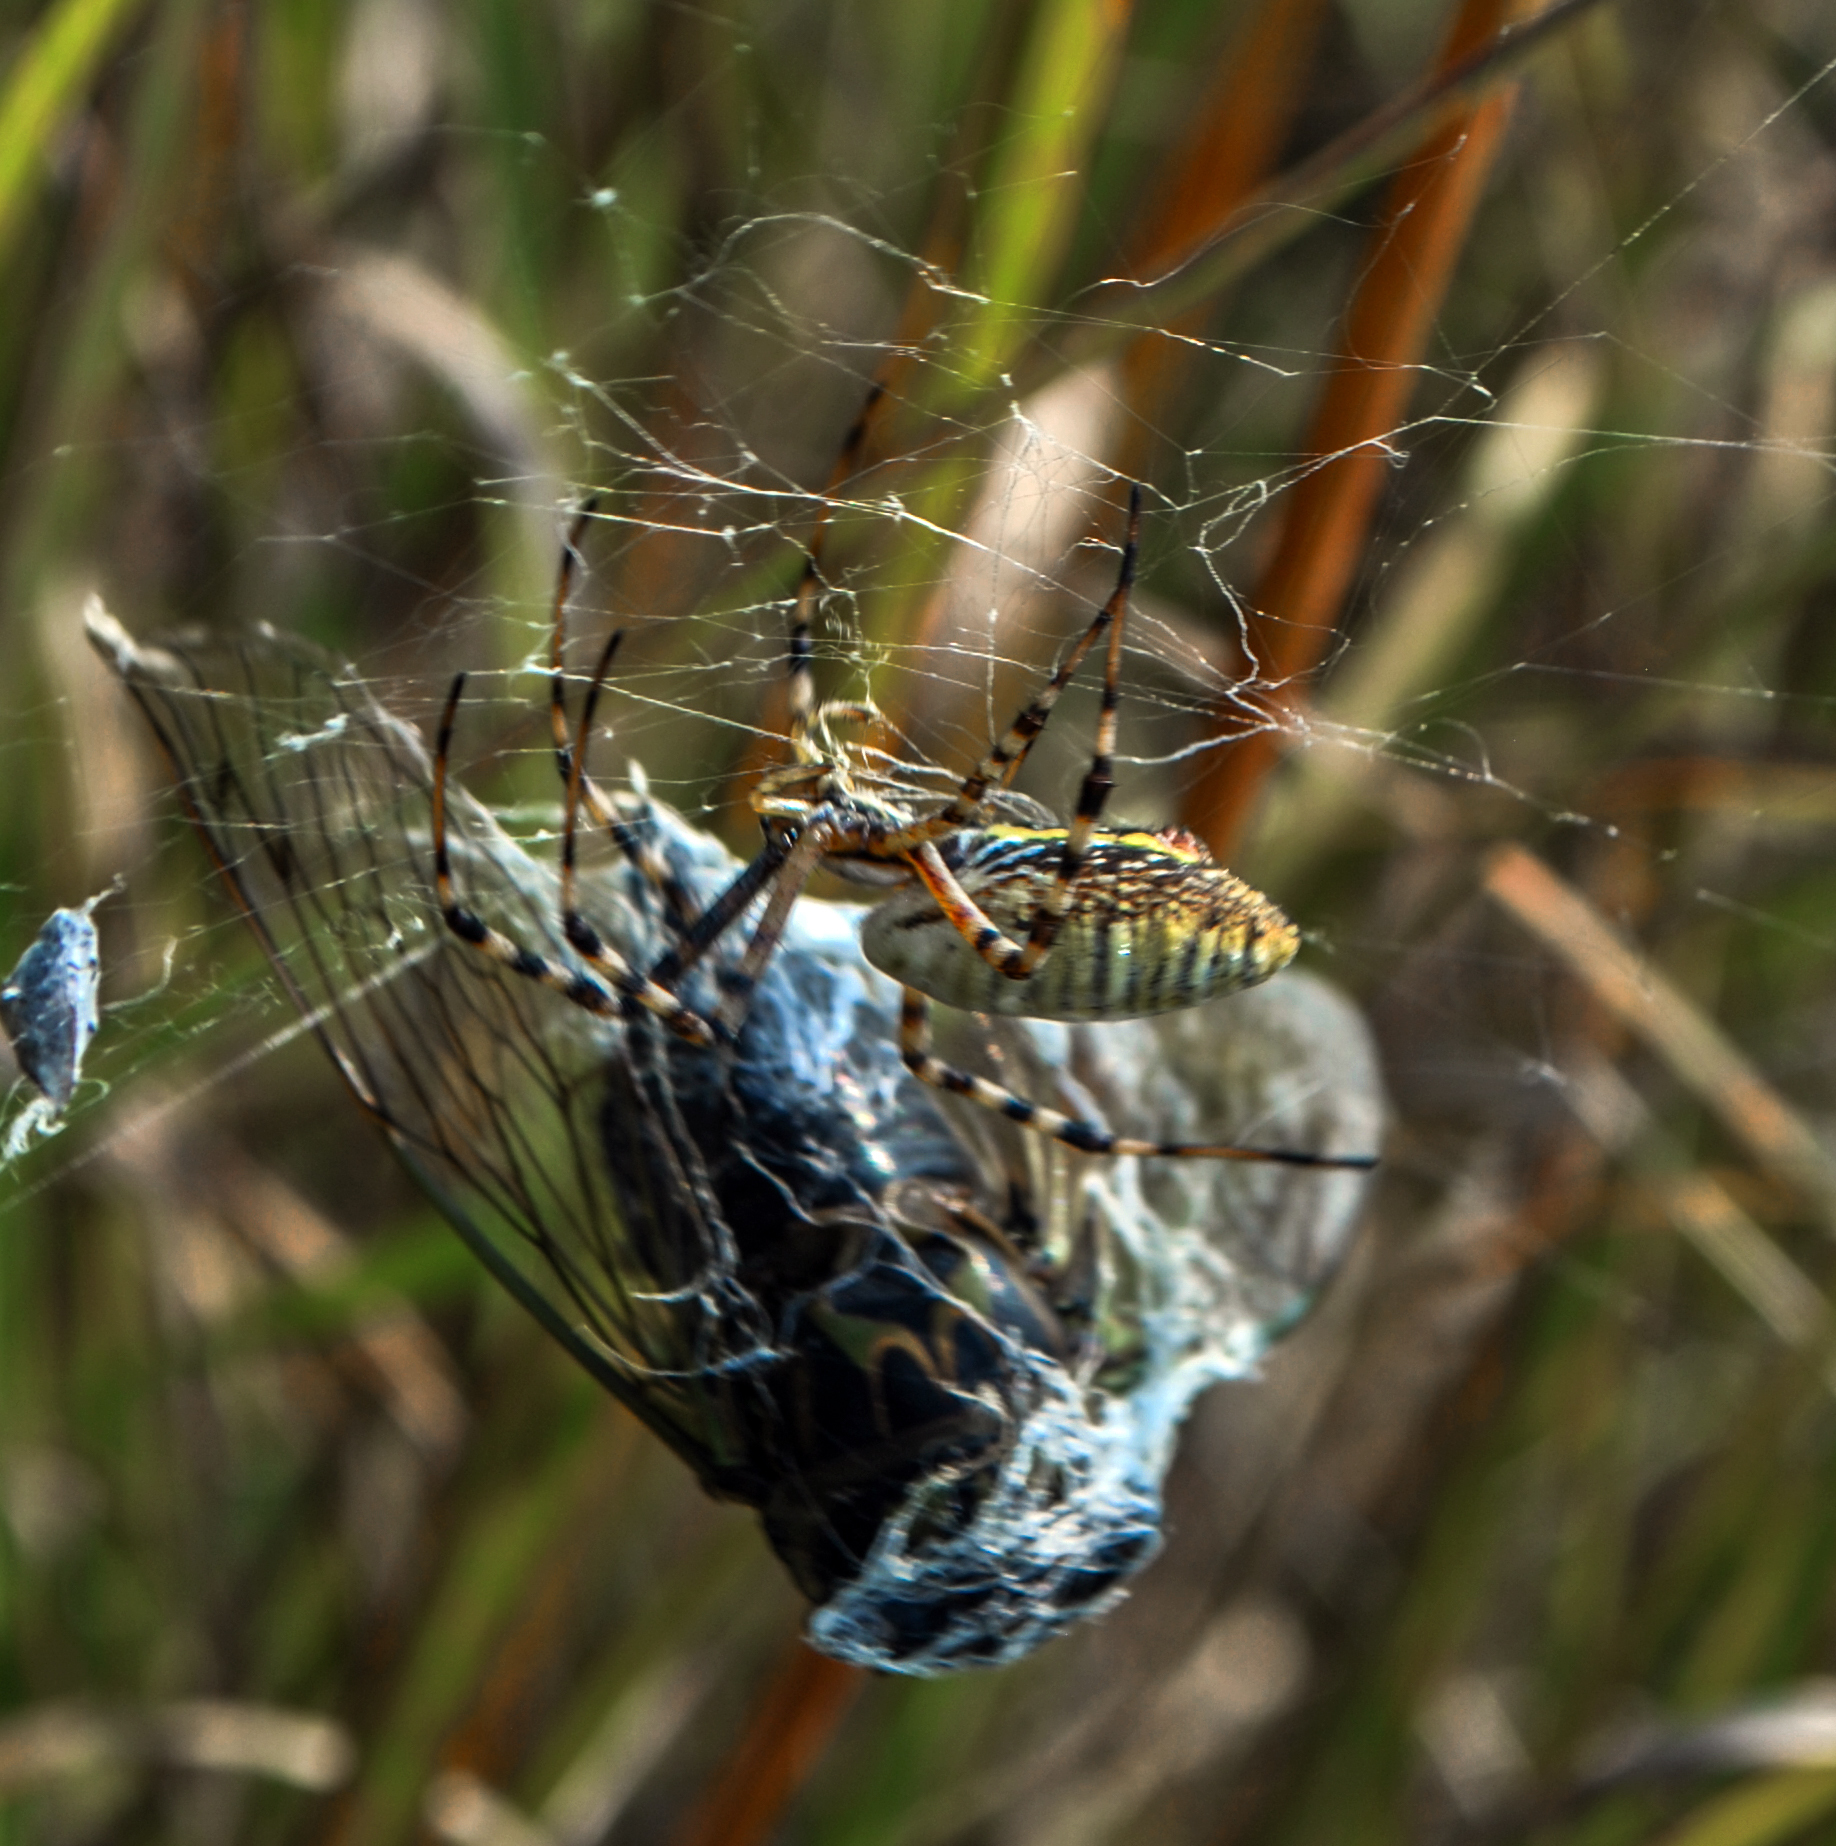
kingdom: Animalia
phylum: Arthropoda
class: Arachnida
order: Araneae
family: Araneidae
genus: Argiope
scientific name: Argiope trifasciata
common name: Banded garden spider
